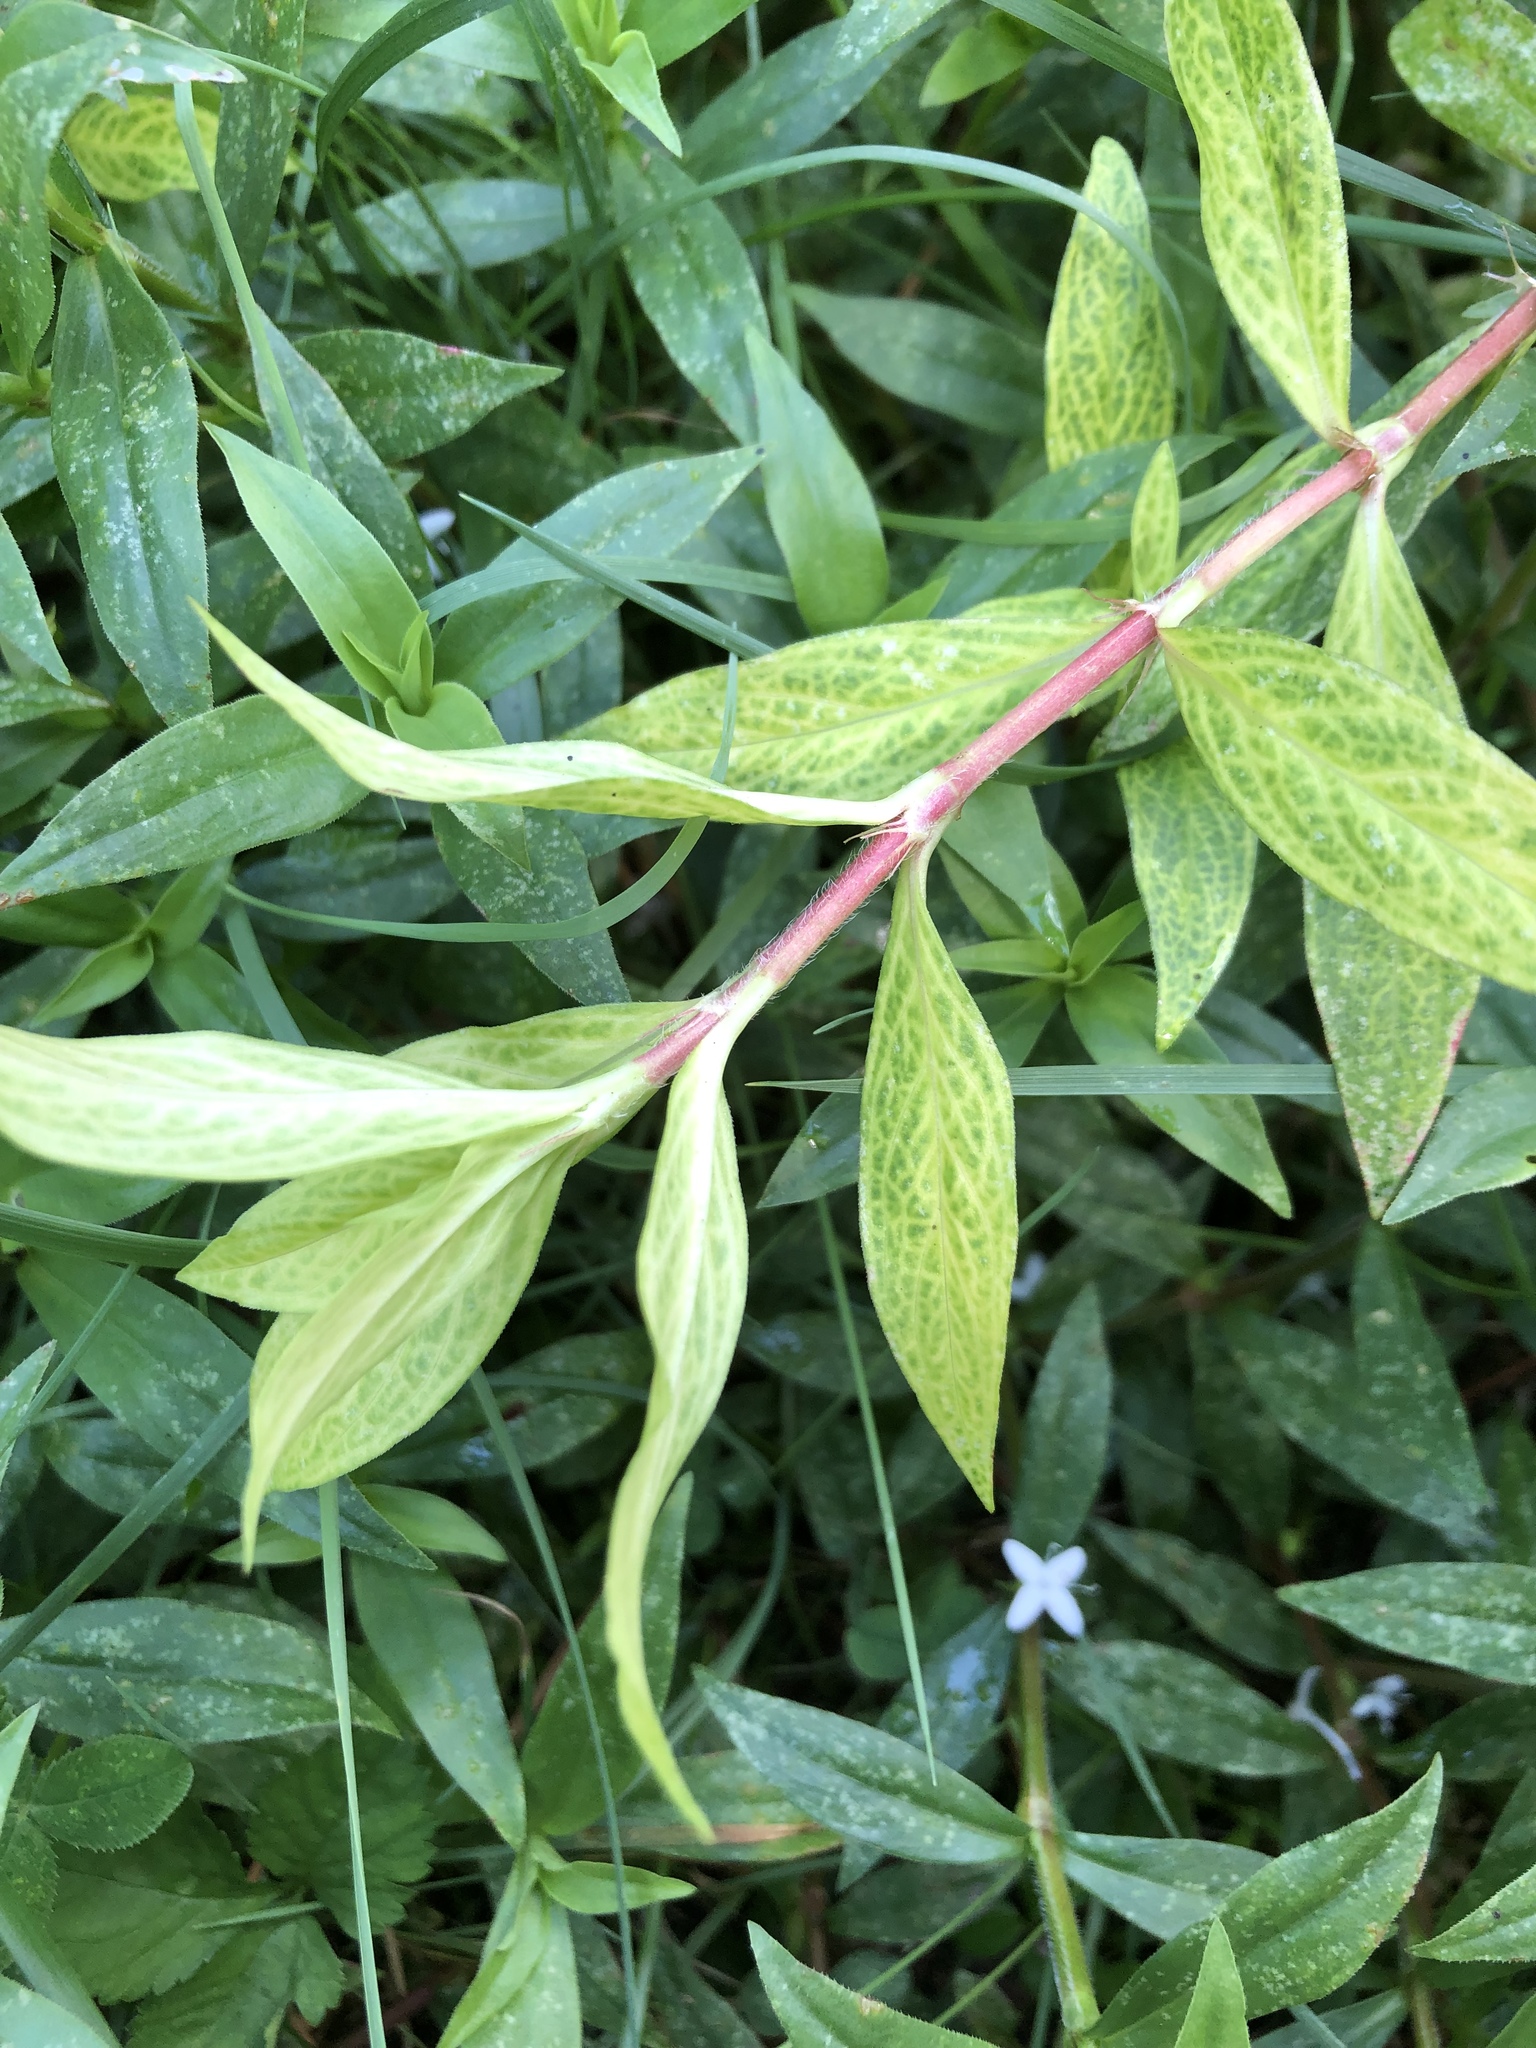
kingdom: Plantae
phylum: Tracheophyta
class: Magnoliopsida
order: Gentianales
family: Rubiaceae
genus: Diodia
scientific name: Diodia virginiana
